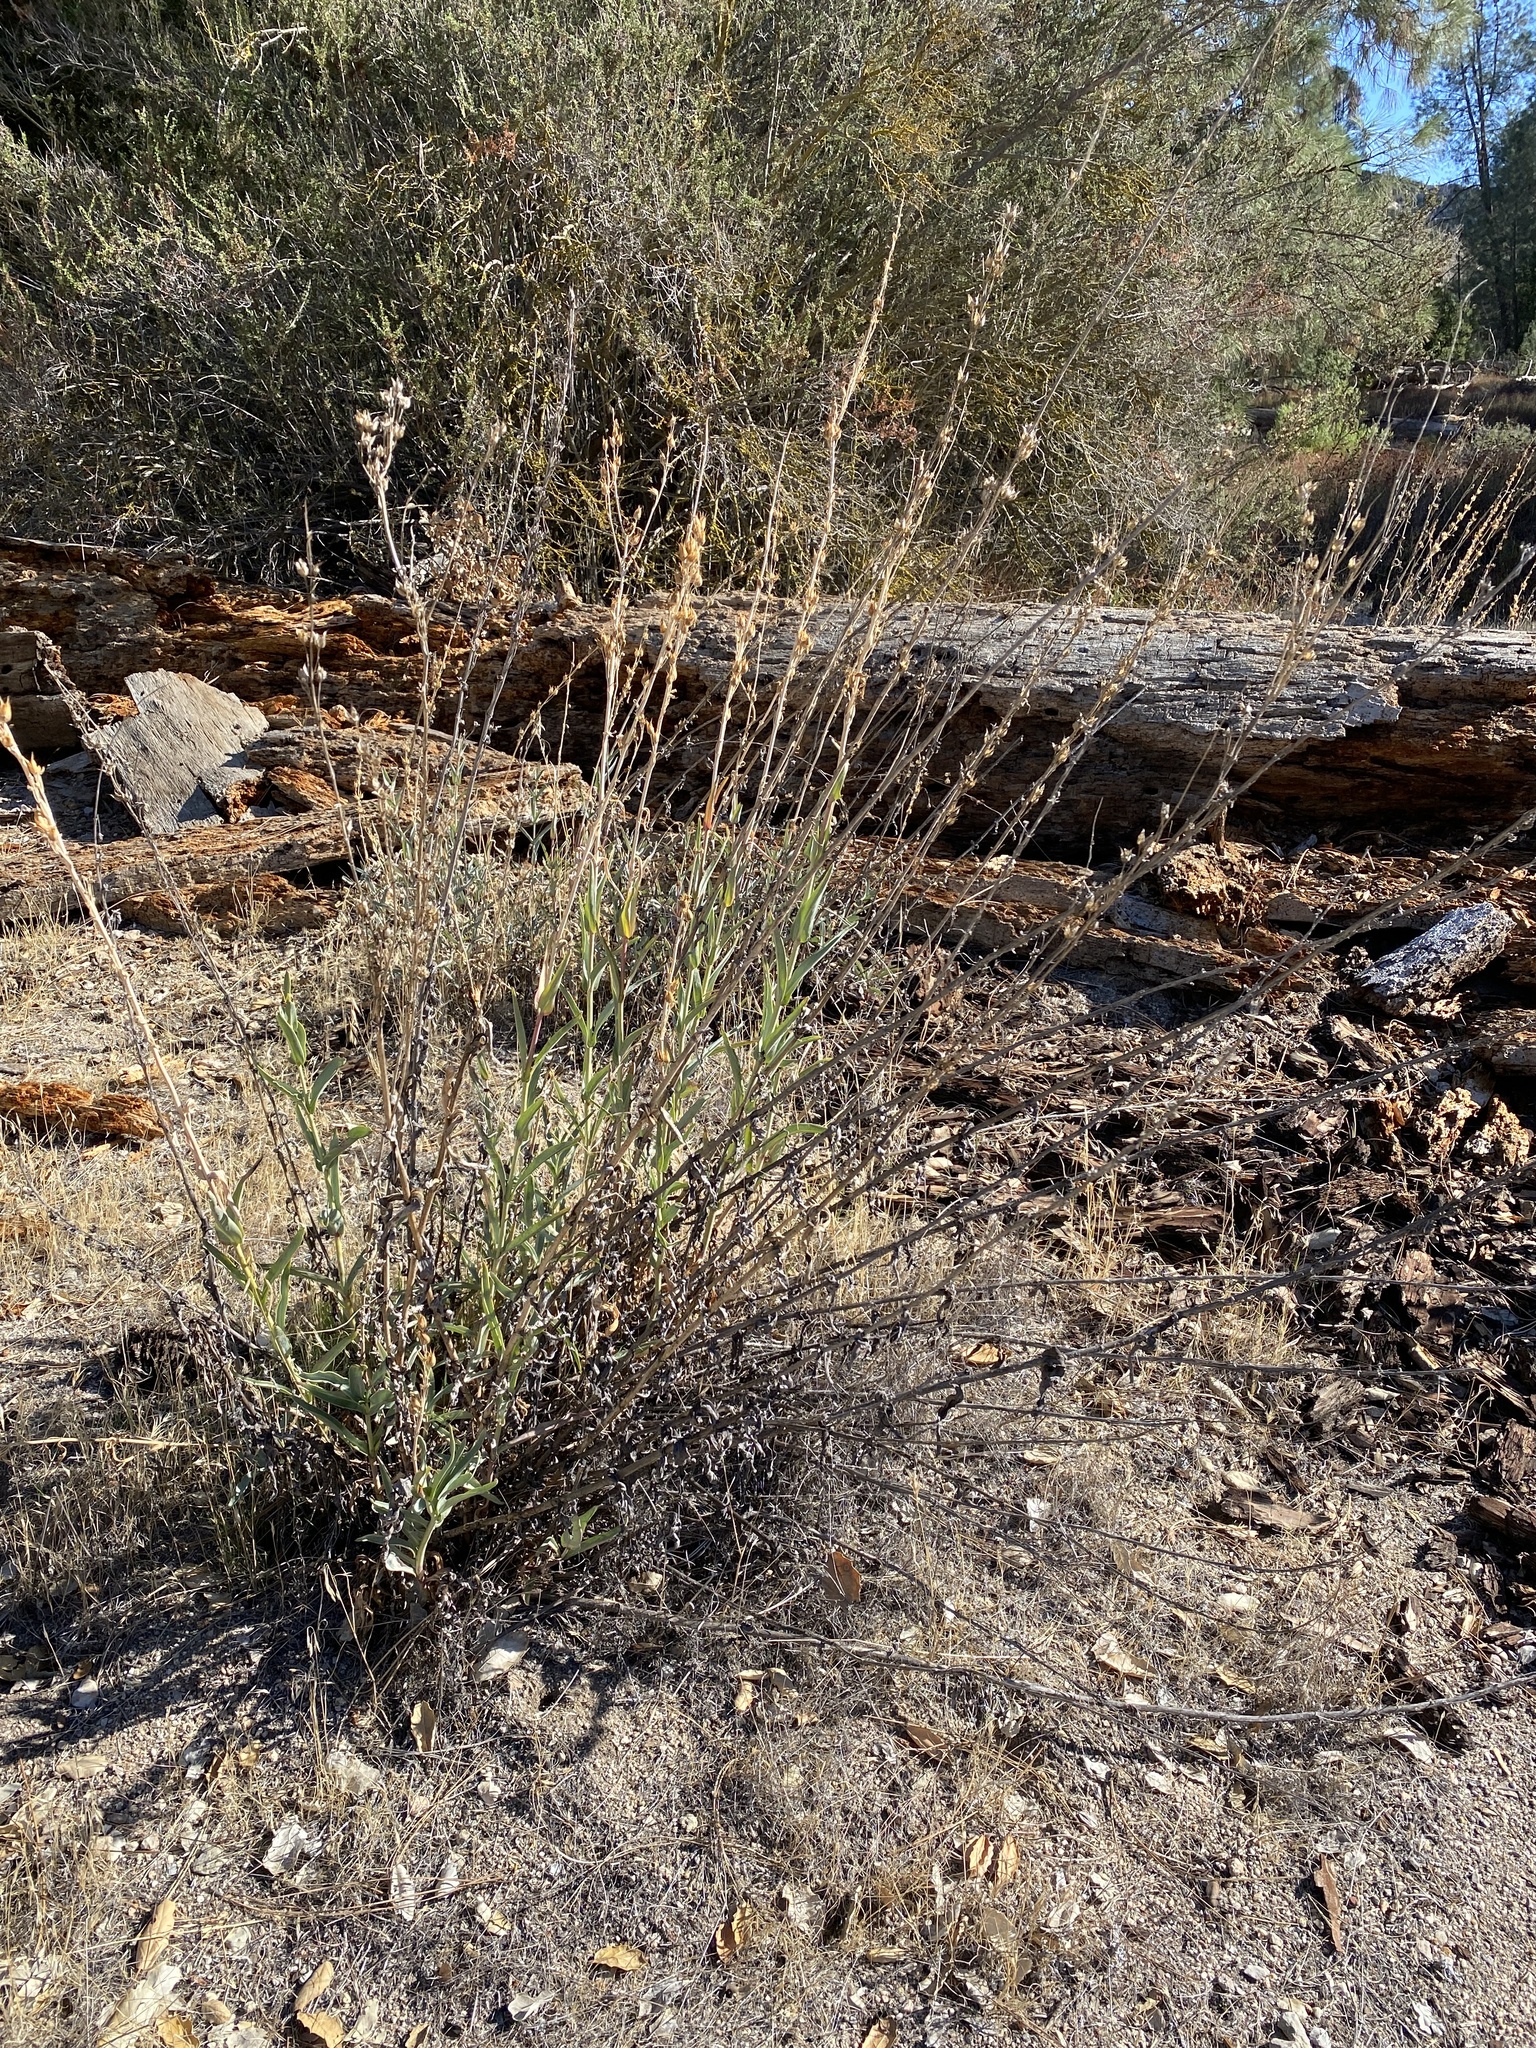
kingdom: Plantae
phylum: Tracheophyta
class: Magnoliopsida
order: Lamiales
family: Plantaginaceae
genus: Penstemon
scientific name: Penstemon centranthifolius
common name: Scarlet bugler
